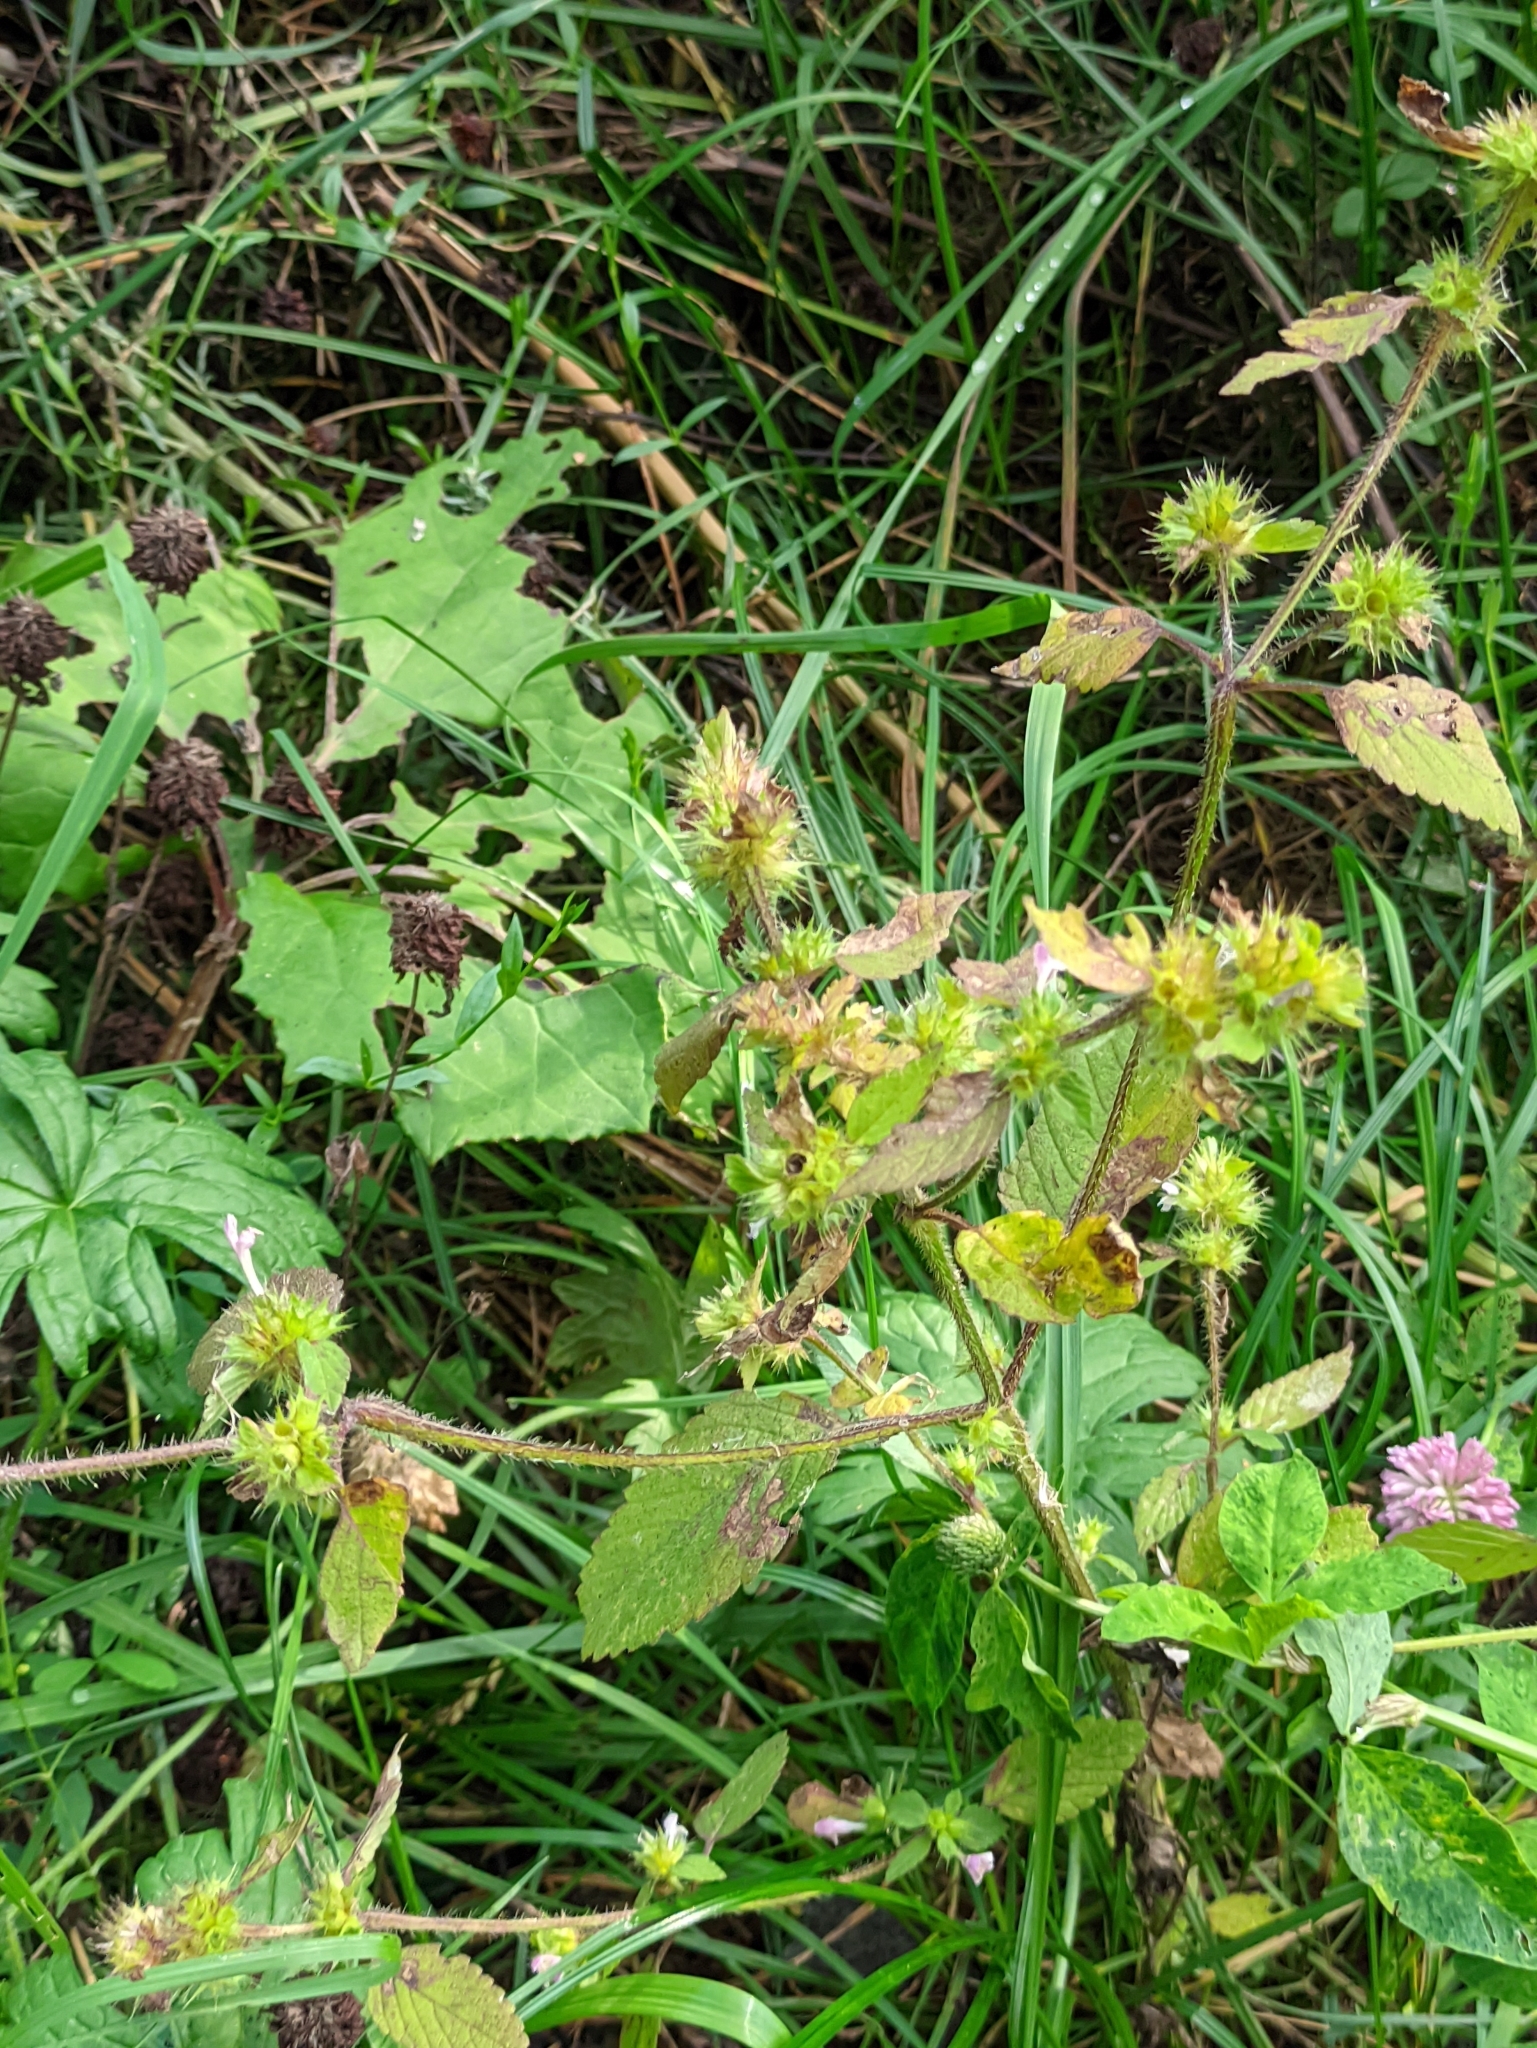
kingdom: Plantae
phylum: Tracheophyta
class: Magnoliopsida
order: Lamiales
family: Lamiaceae
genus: Galeopsis
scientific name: Galeopsis bifida
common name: Bifid hemp-nettle
